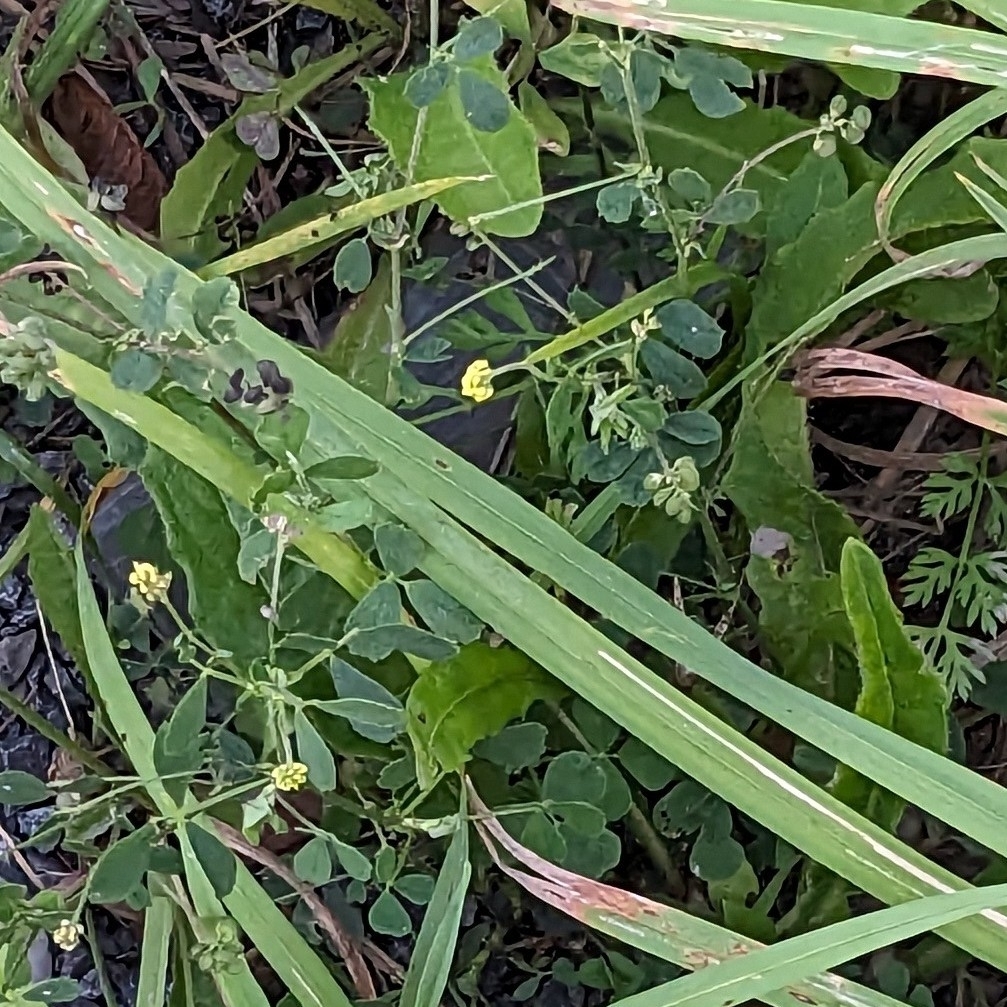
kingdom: Plantae
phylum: Tracheophyta
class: Magnoliopsida
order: Fabales
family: Fabaceae
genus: Medicago
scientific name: Medicago lupulina
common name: Black medick
